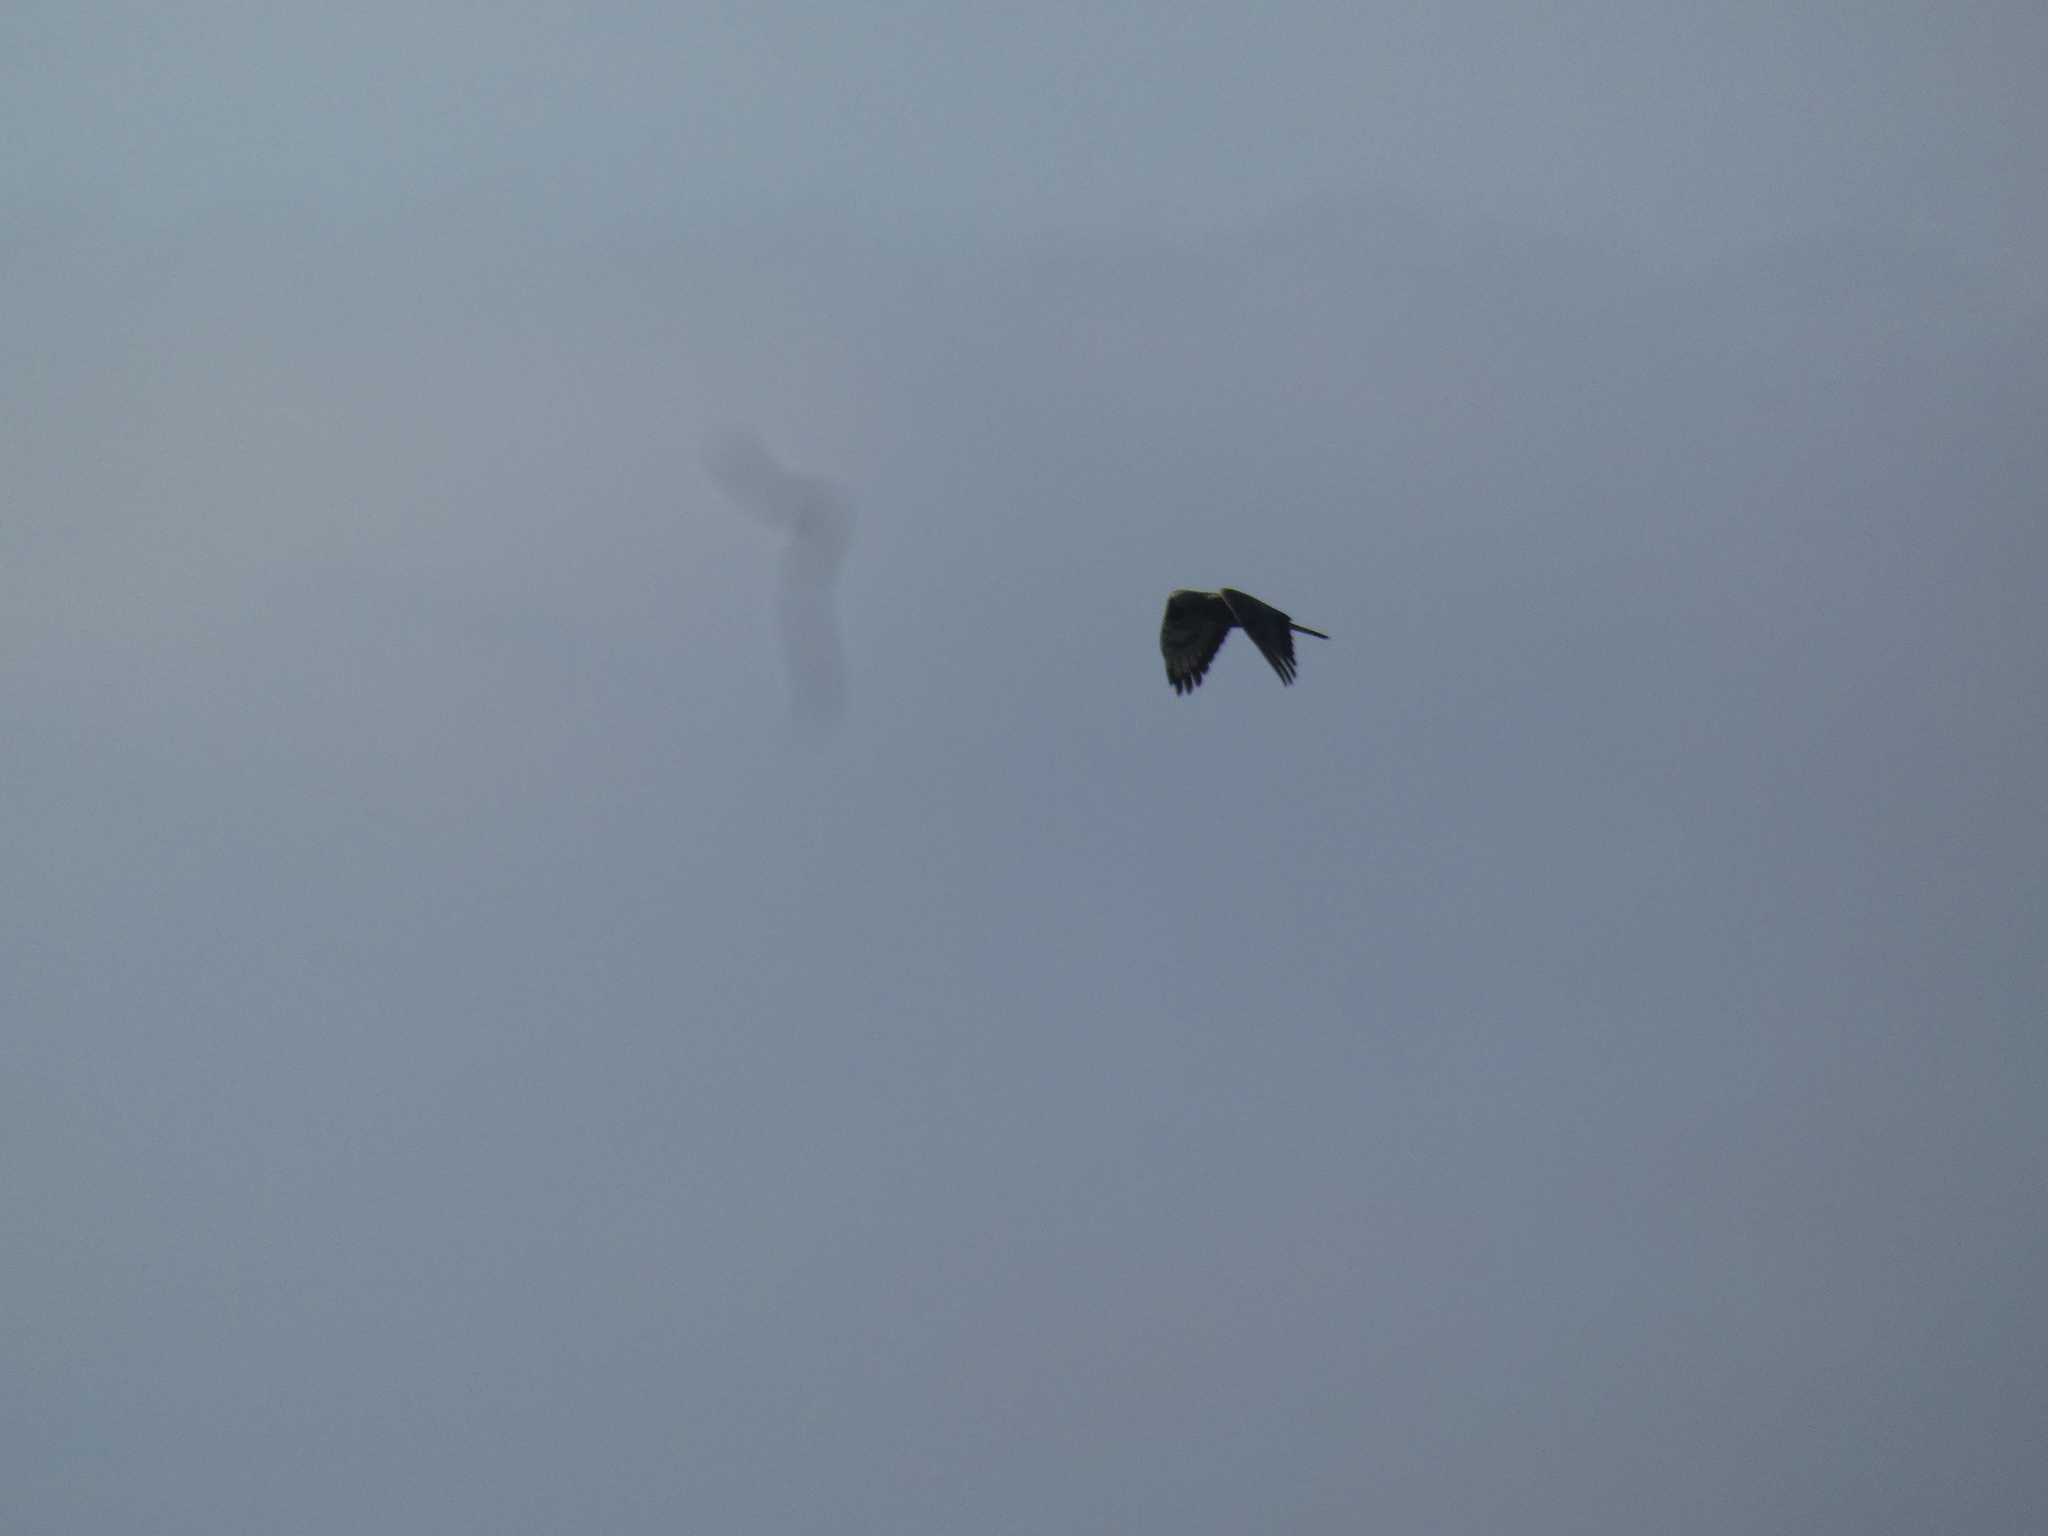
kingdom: Animalia
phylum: Chordata
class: Aves
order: Accipitriformes
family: Accipitridae
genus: Pernis
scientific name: Pernis apivorus
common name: European honey buzzard
